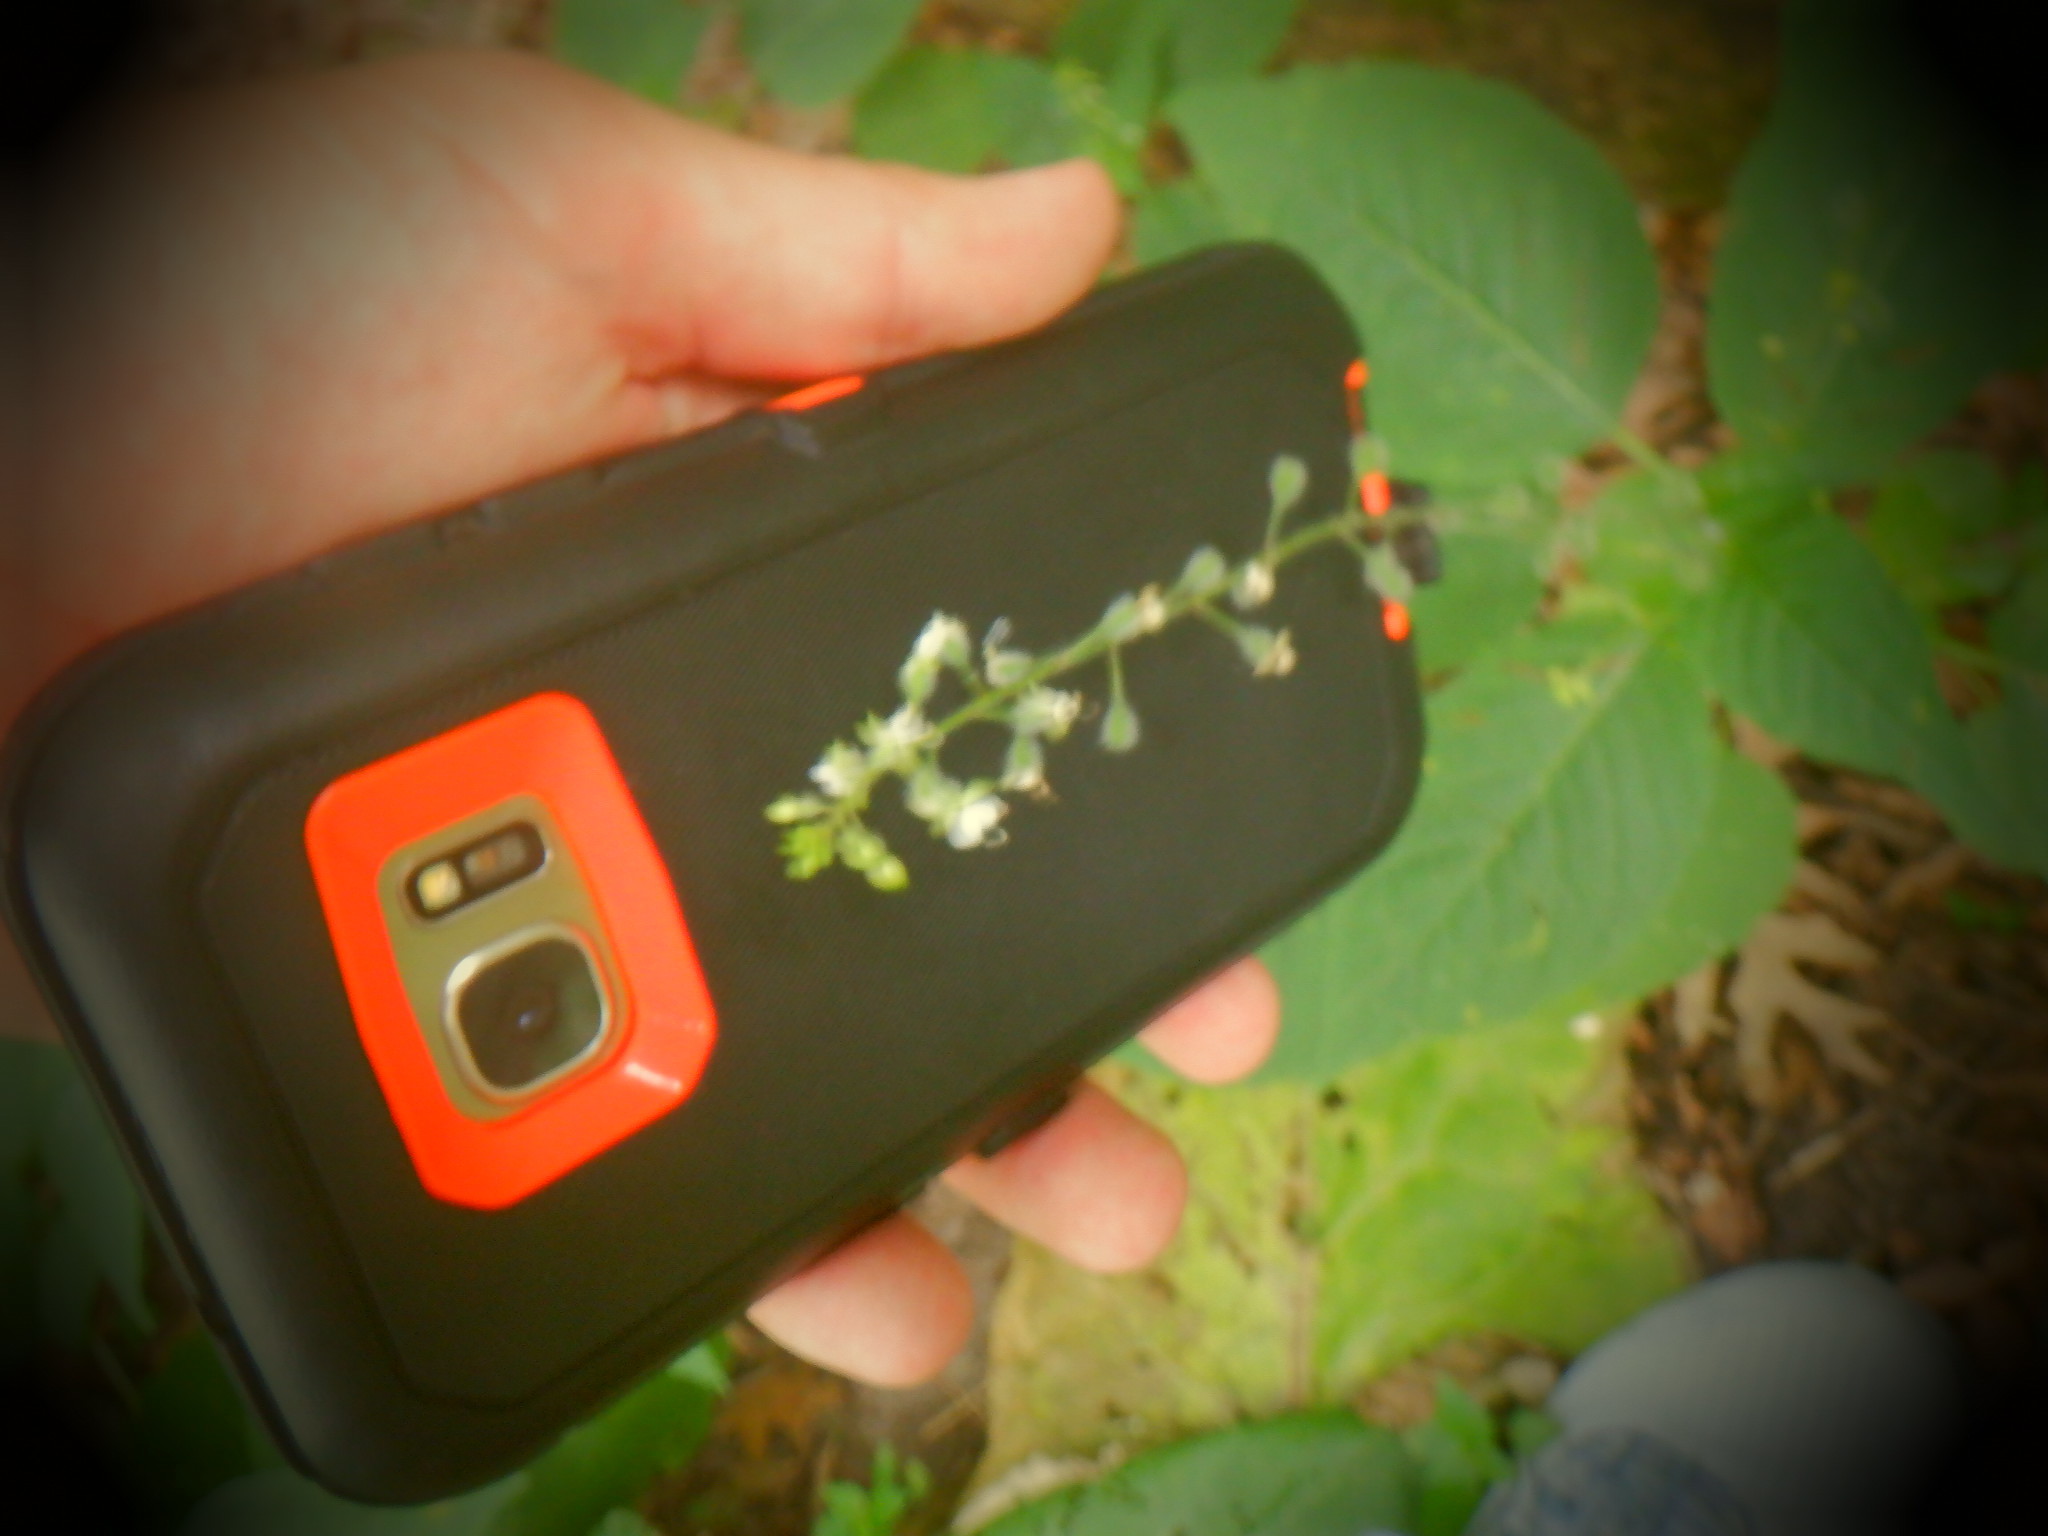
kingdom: Plantae
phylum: Tracheophyta
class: Magnoliopsida
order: Myrtales
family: Onagraceae
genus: Circaea
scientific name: Circaea canadensis
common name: Broad-leaved enchanter's nightshade
